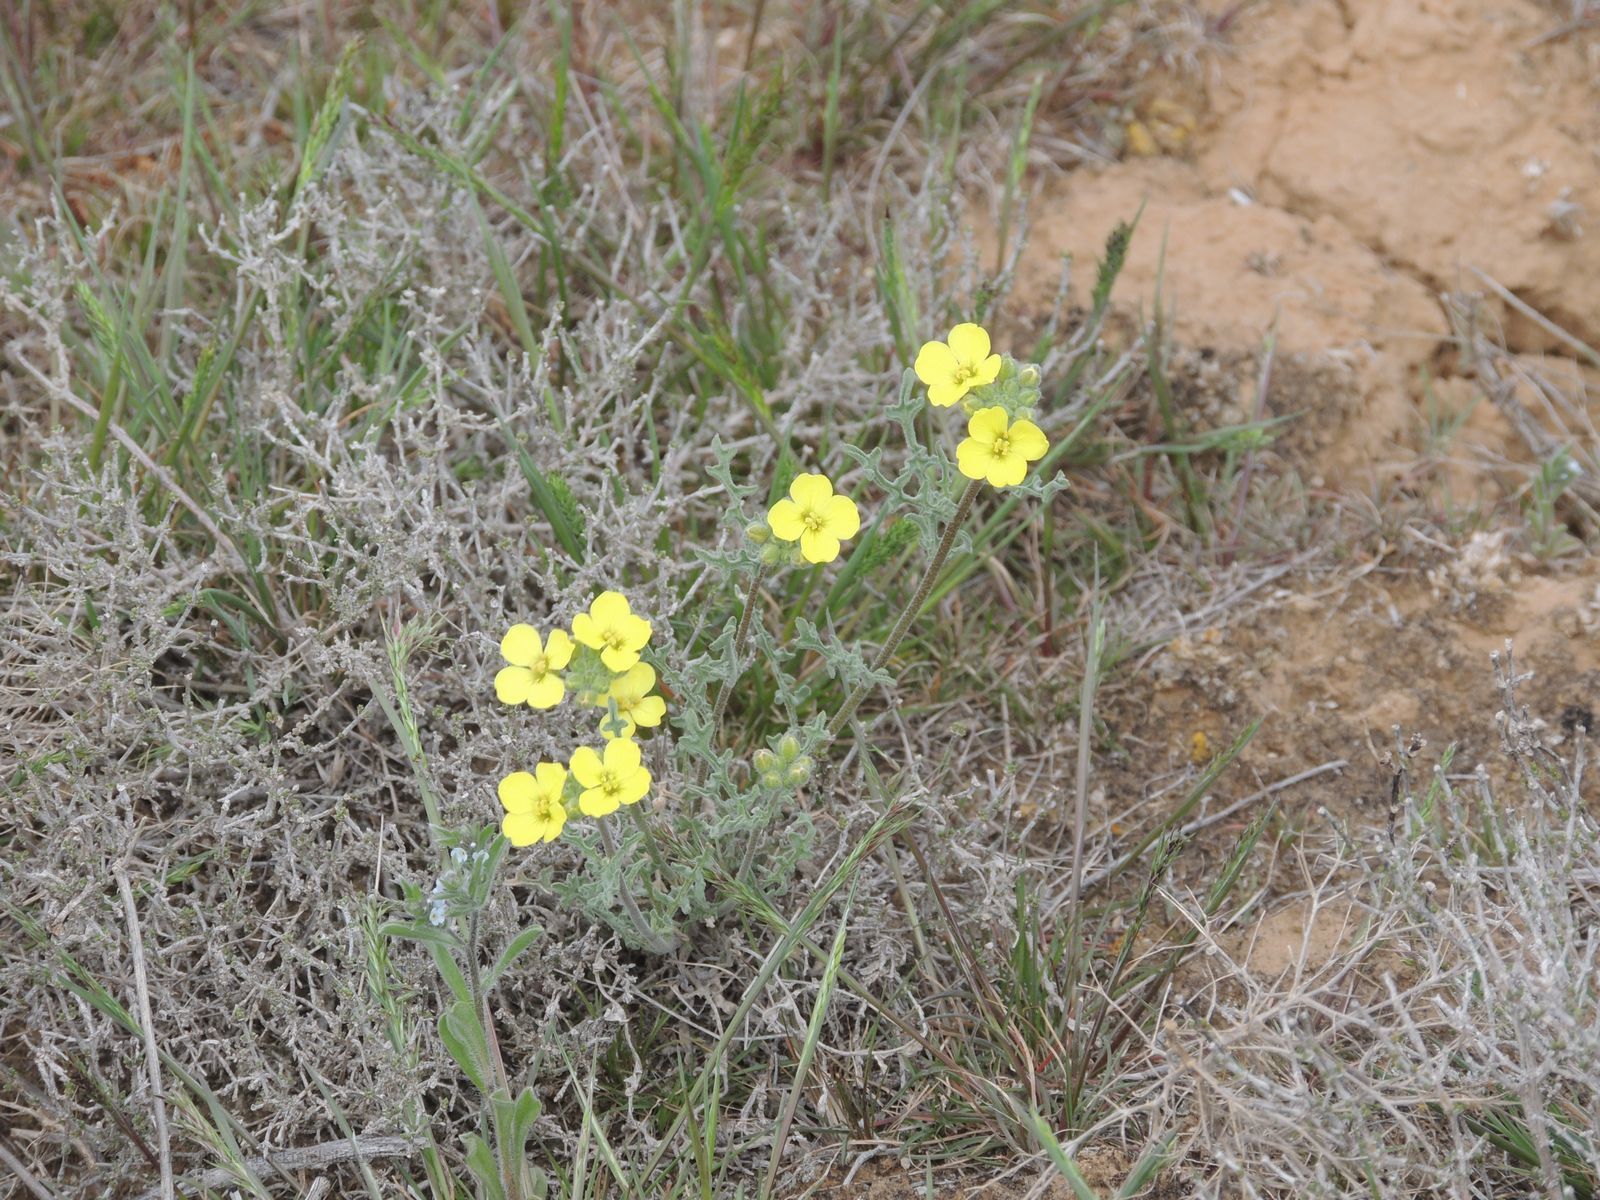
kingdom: Plantae
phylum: Tracheophyta
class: Magnoliopsida
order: Brassicales
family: Brassicaceae
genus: Sterigmostemum
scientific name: Sterigmostemum caspicum
